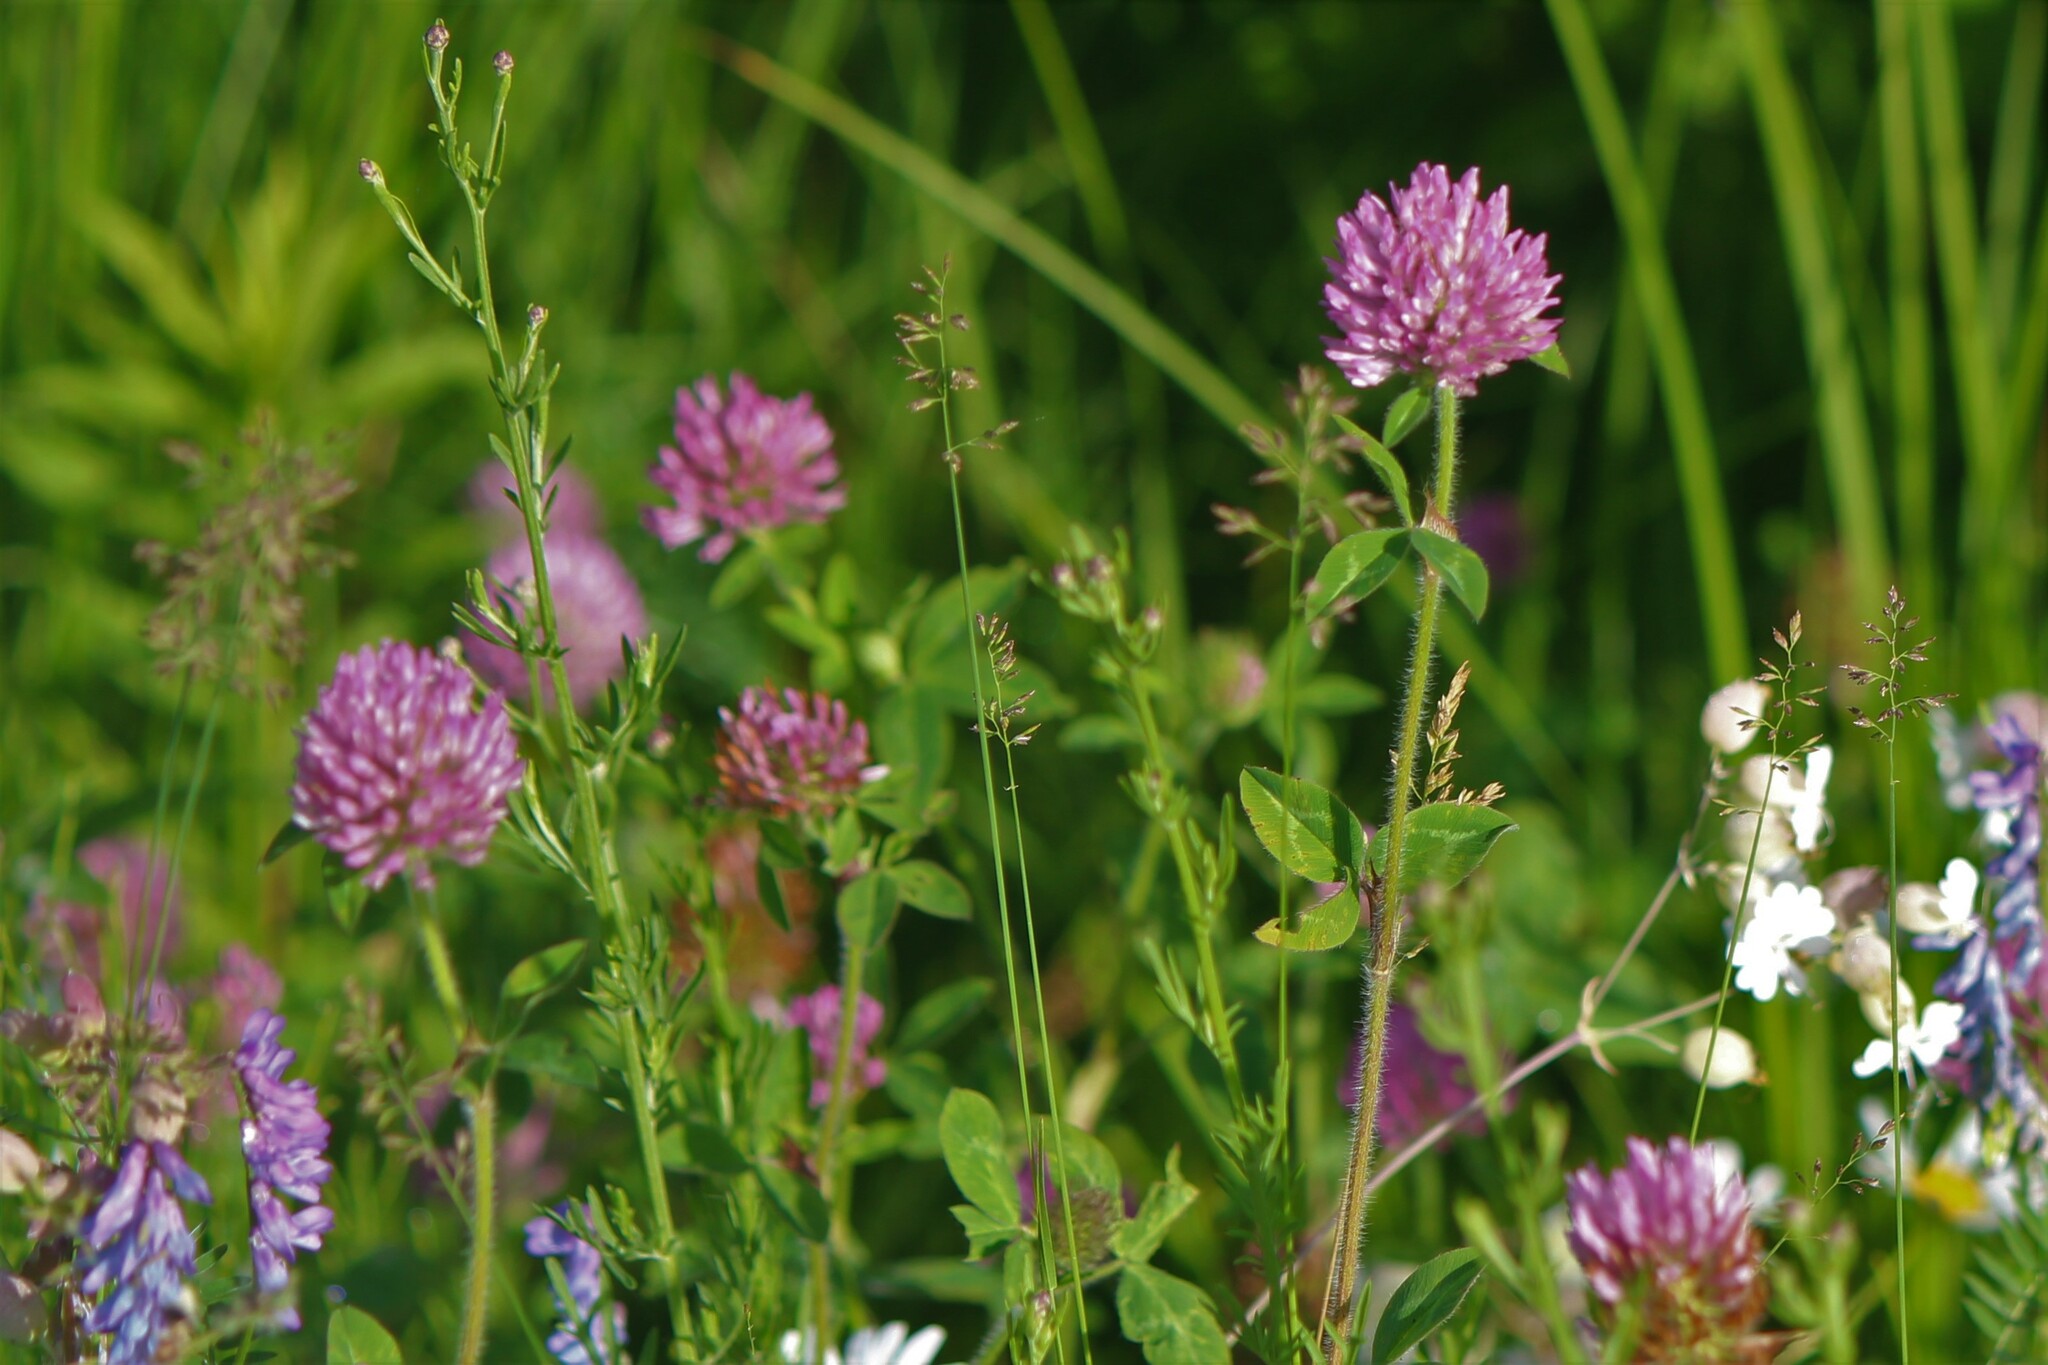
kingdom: Plantae
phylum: Tracheophyta
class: Magnoliopsida
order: Fabales
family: Fabaceae
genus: Trifolium
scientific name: Trifolium pratense
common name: Red clover
